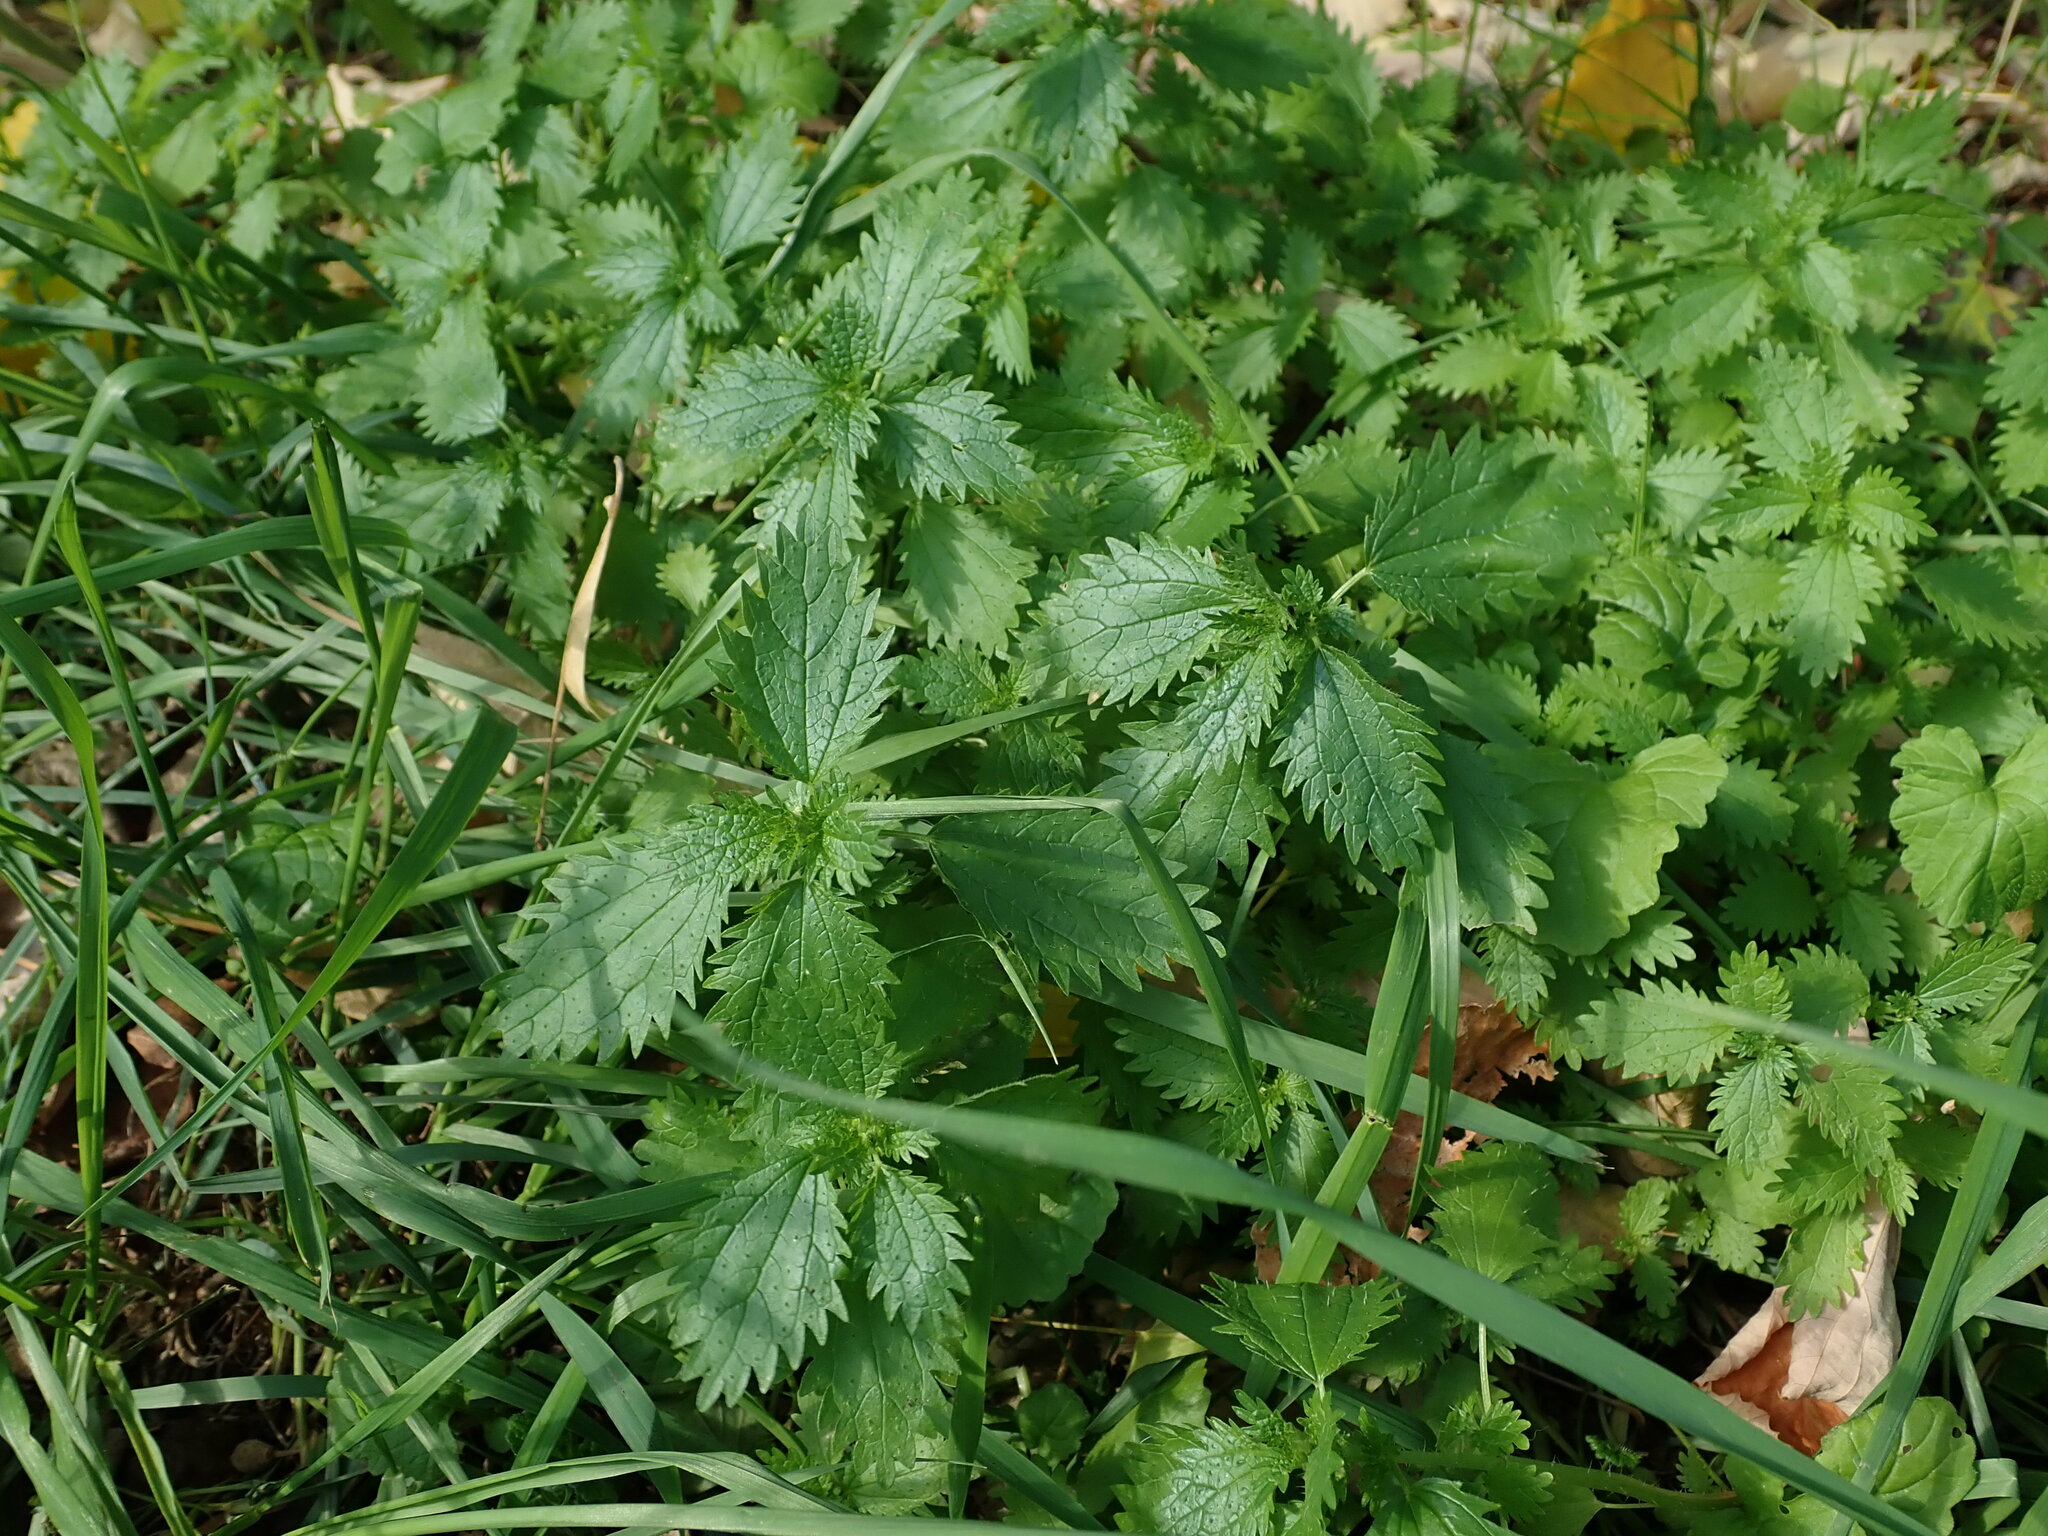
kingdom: Plantae
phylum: Tracheophyta
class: Magnoliopsida
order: Rosales
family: Urticaceae
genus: Urtica
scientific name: Urtica urens
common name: Dwarf nettle
